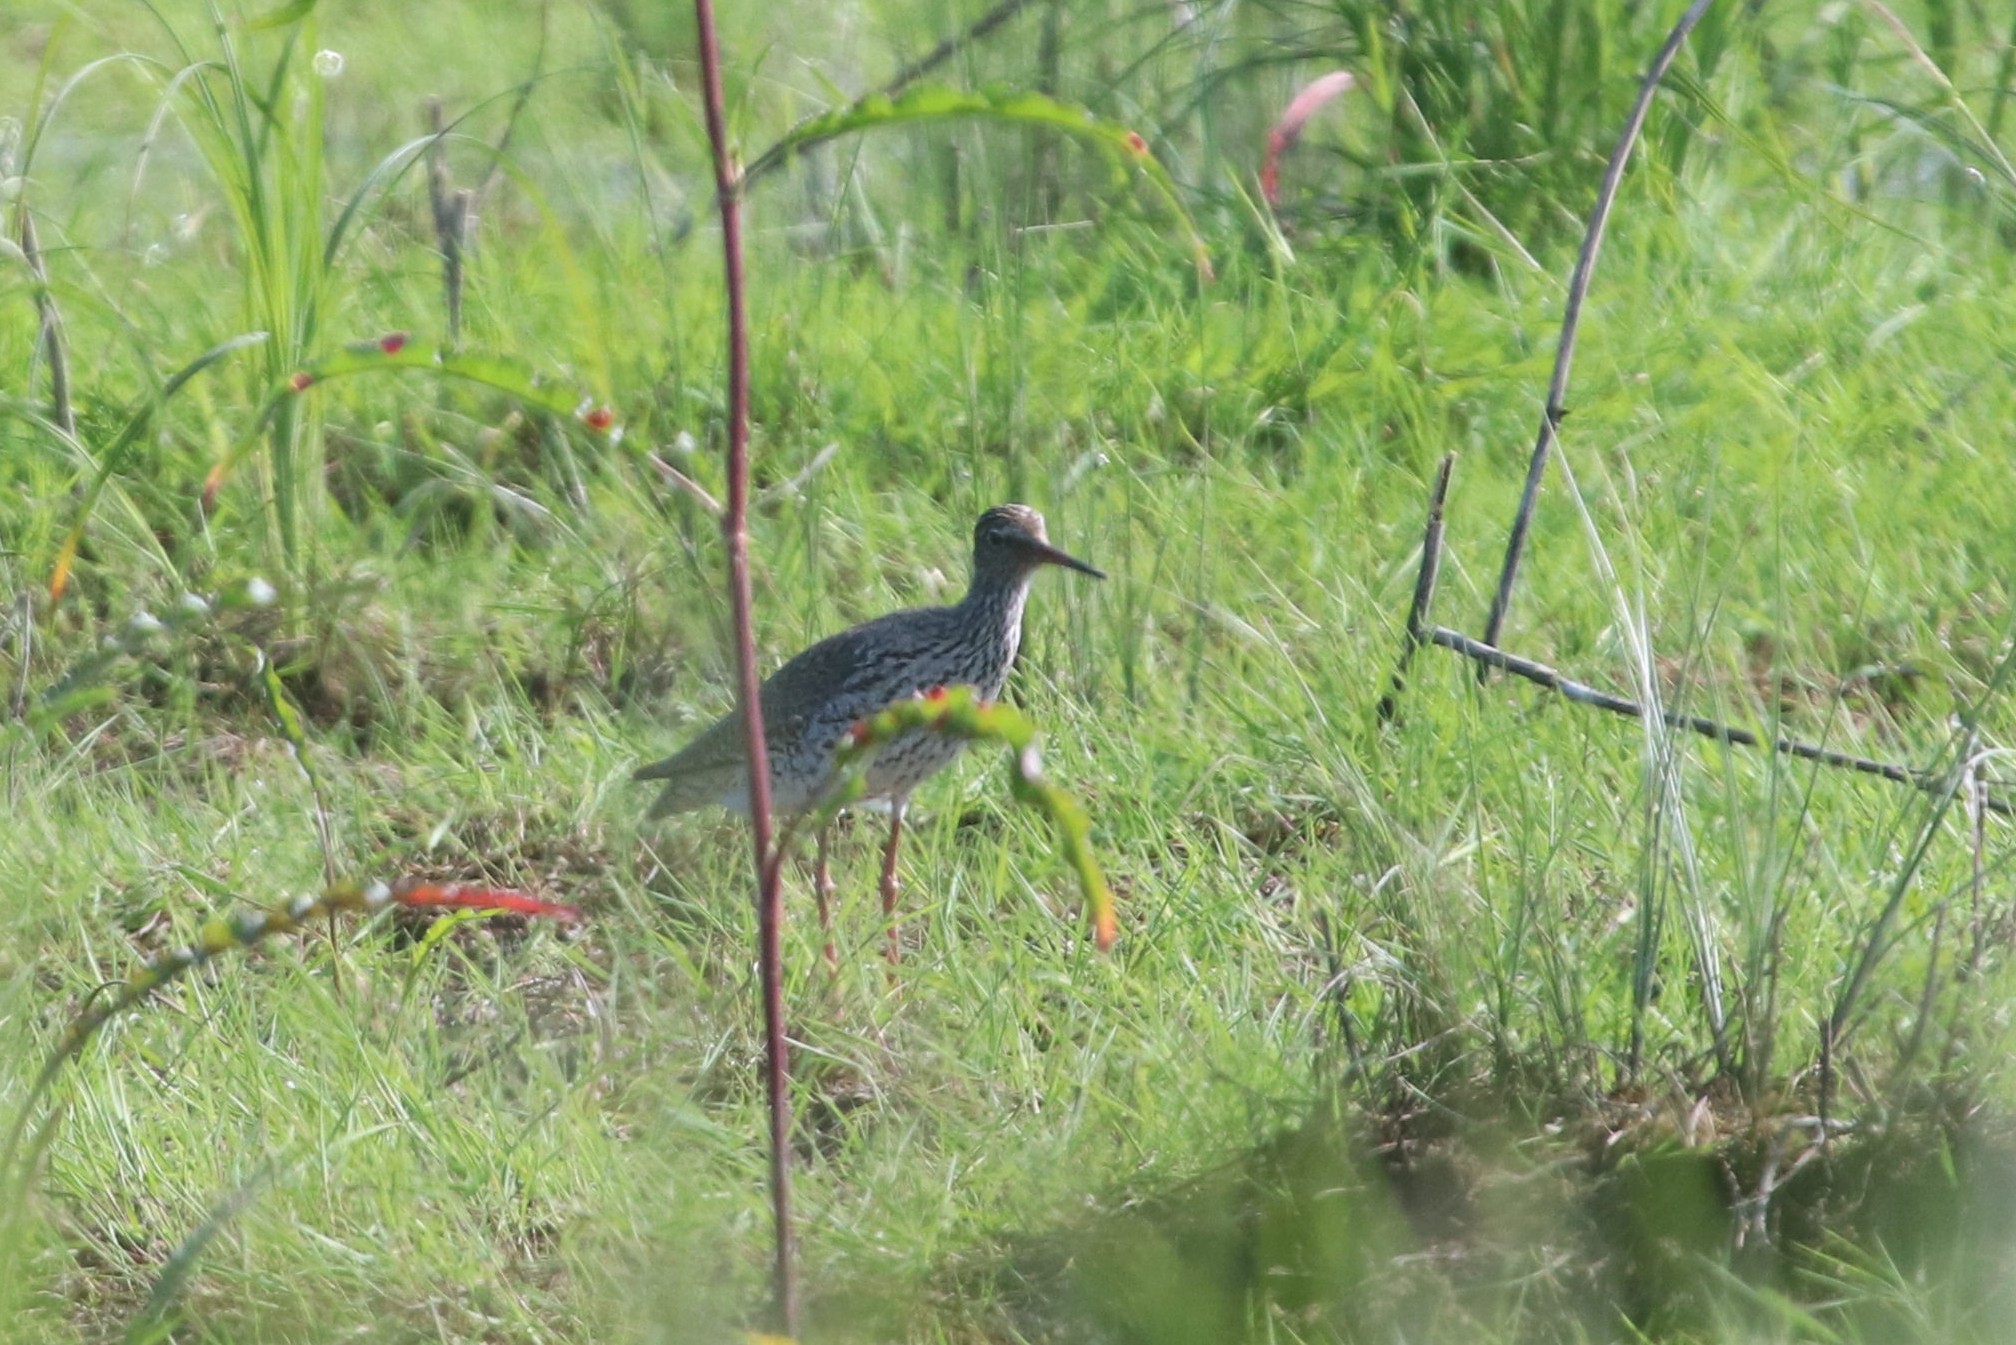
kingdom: Animalia
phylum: Chordata
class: Aves
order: Charadriiformes
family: Scolopacidae
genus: Tringa
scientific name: Tringa totanus
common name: Common redshank
